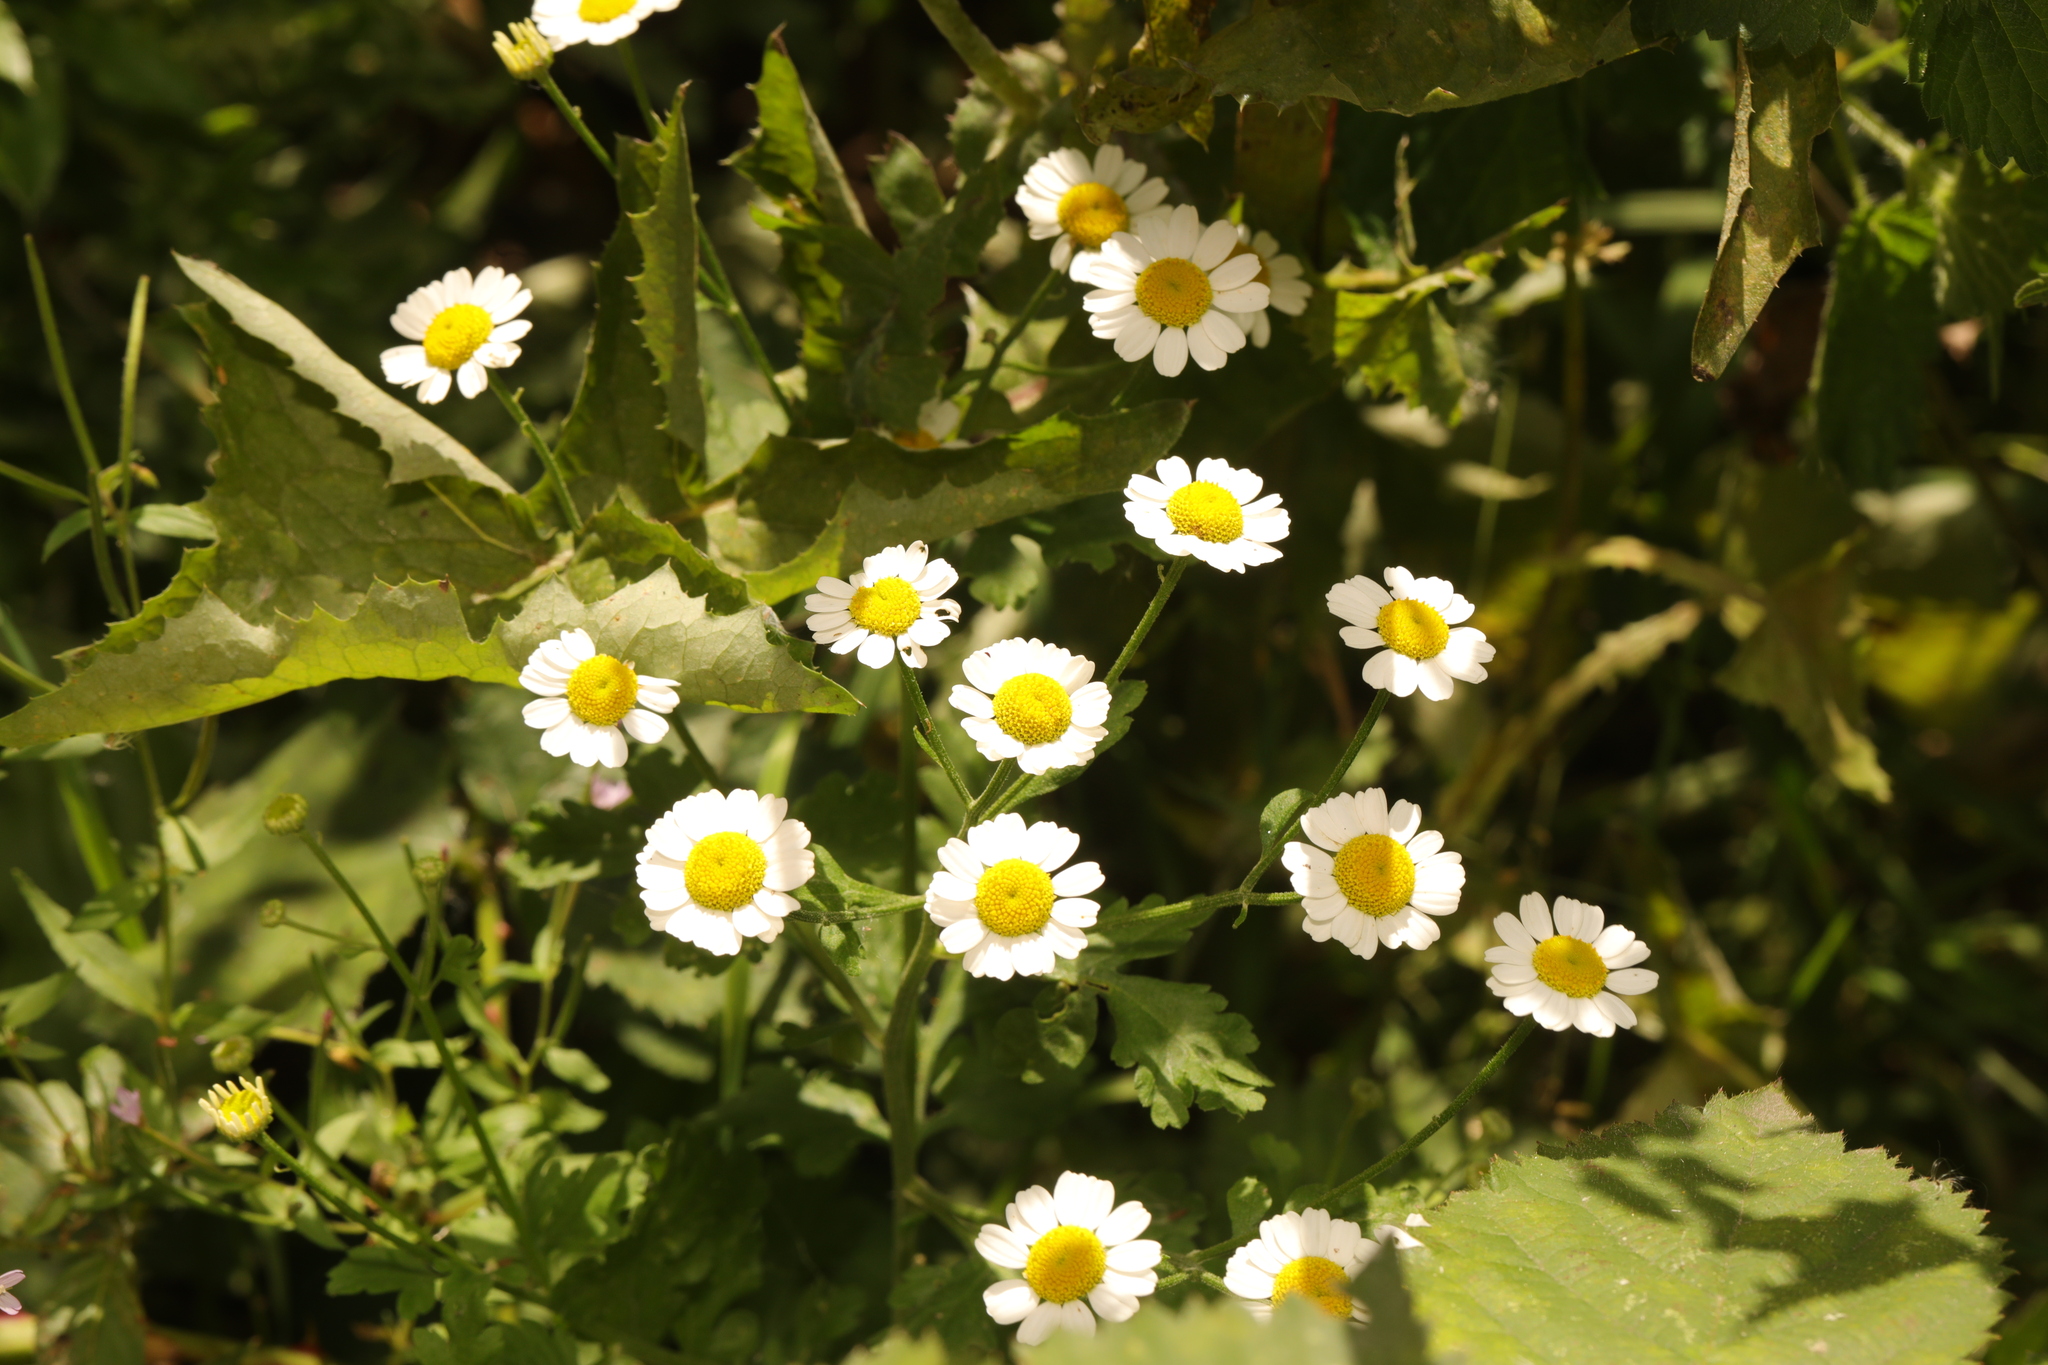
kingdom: Plantae
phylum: Tracheophyta
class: Magnoliopsida
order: Asterales
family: Asteraceae
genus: Tanacetum
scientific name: Tanacetum parthenium
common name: Feverfew
